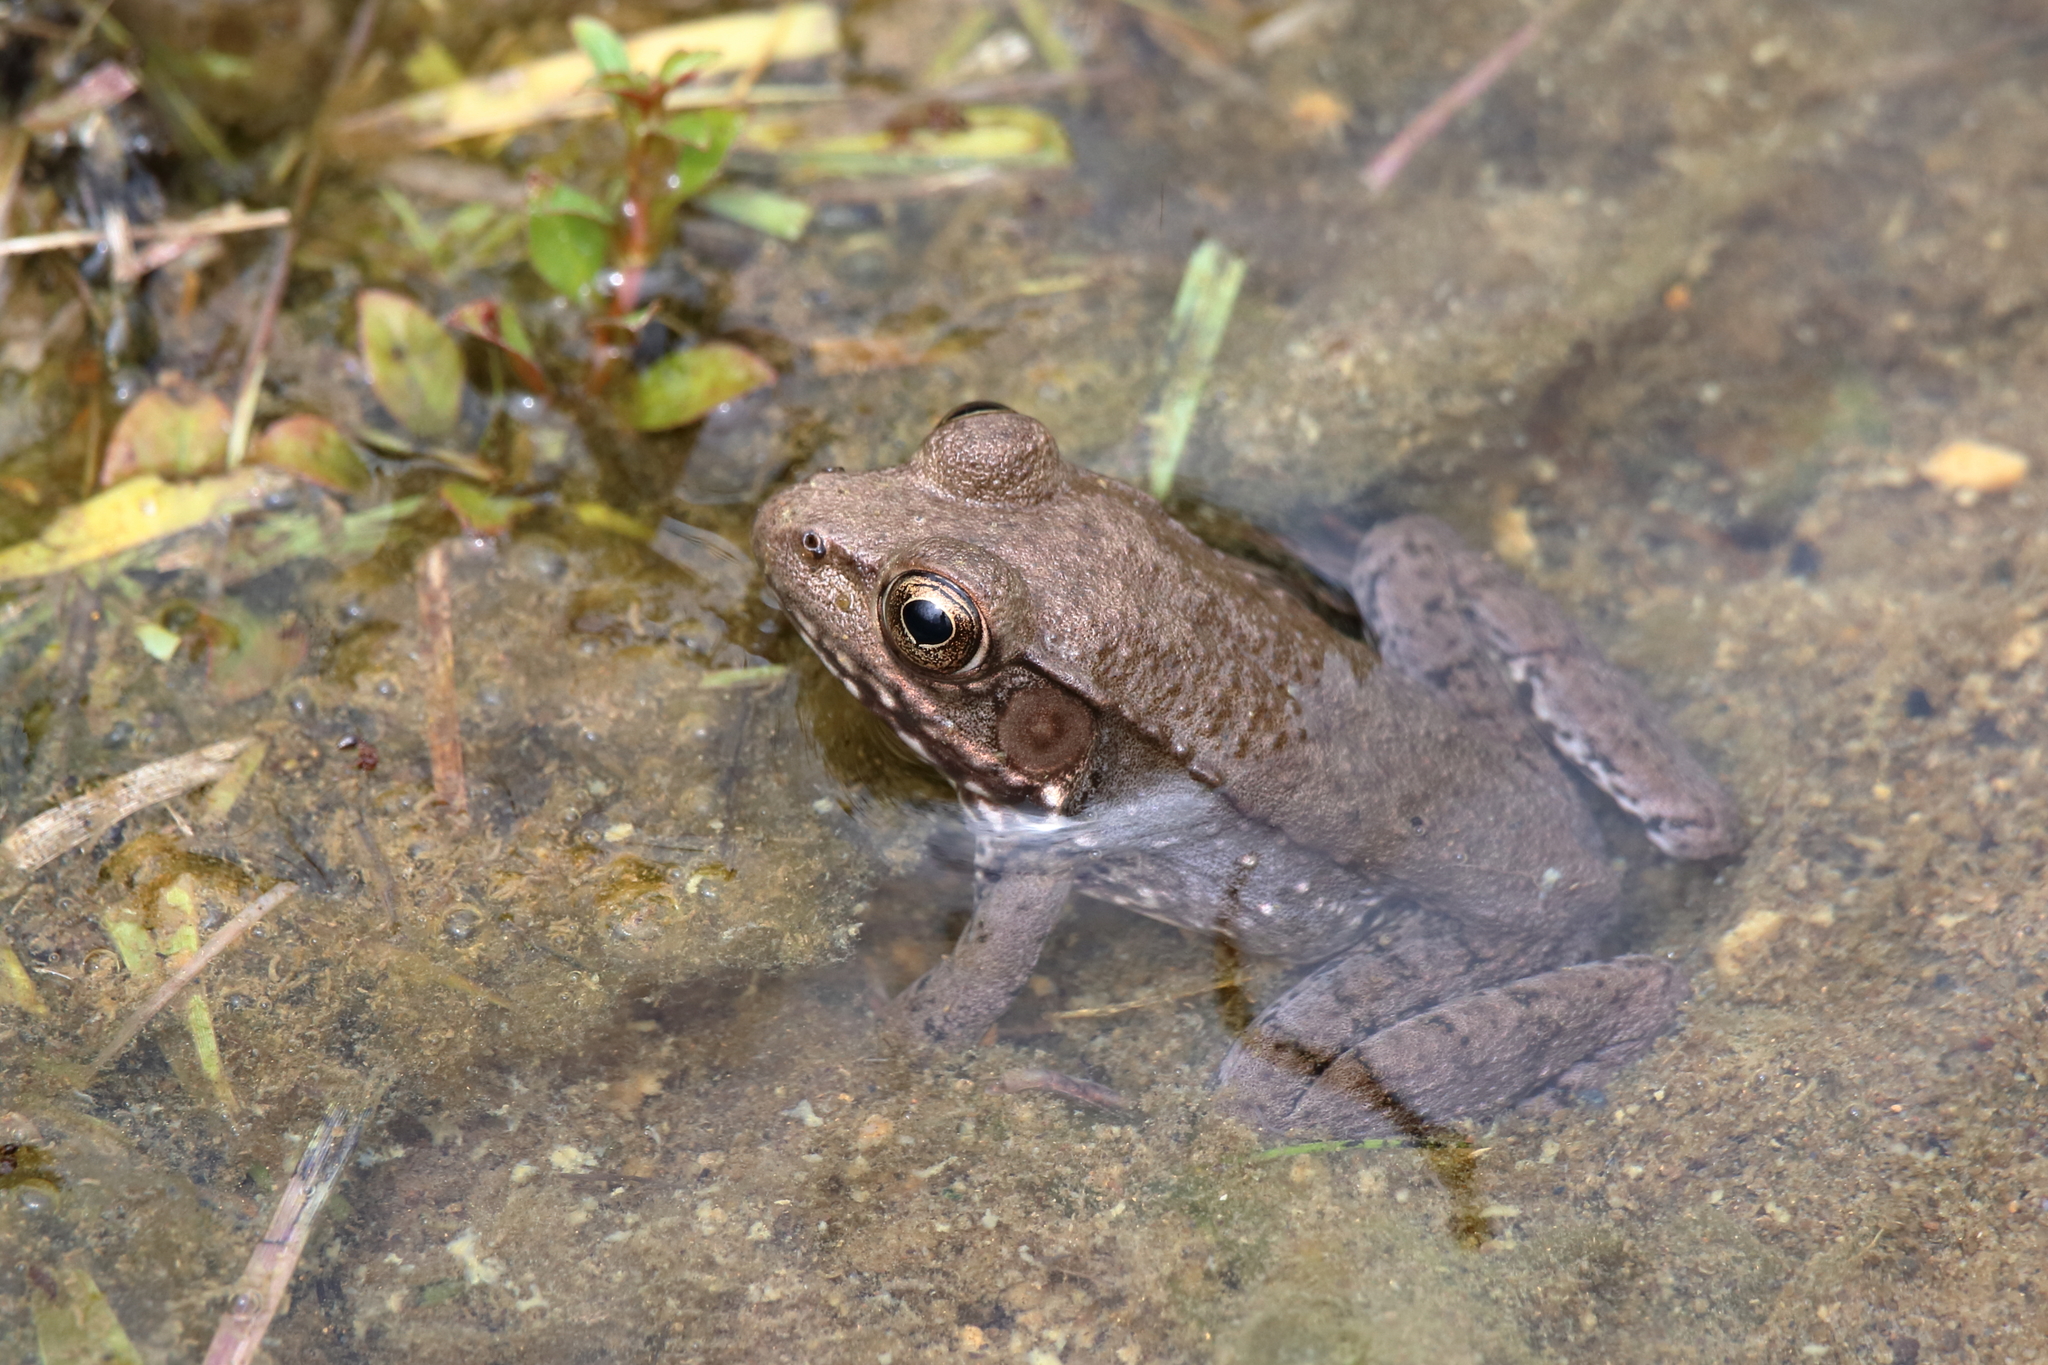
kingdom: Animalia
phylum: Chordata
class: Amphibia
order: Anura
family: Ranidae
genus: Lithobates
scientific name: Lithobates clamitans
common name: Green frog
